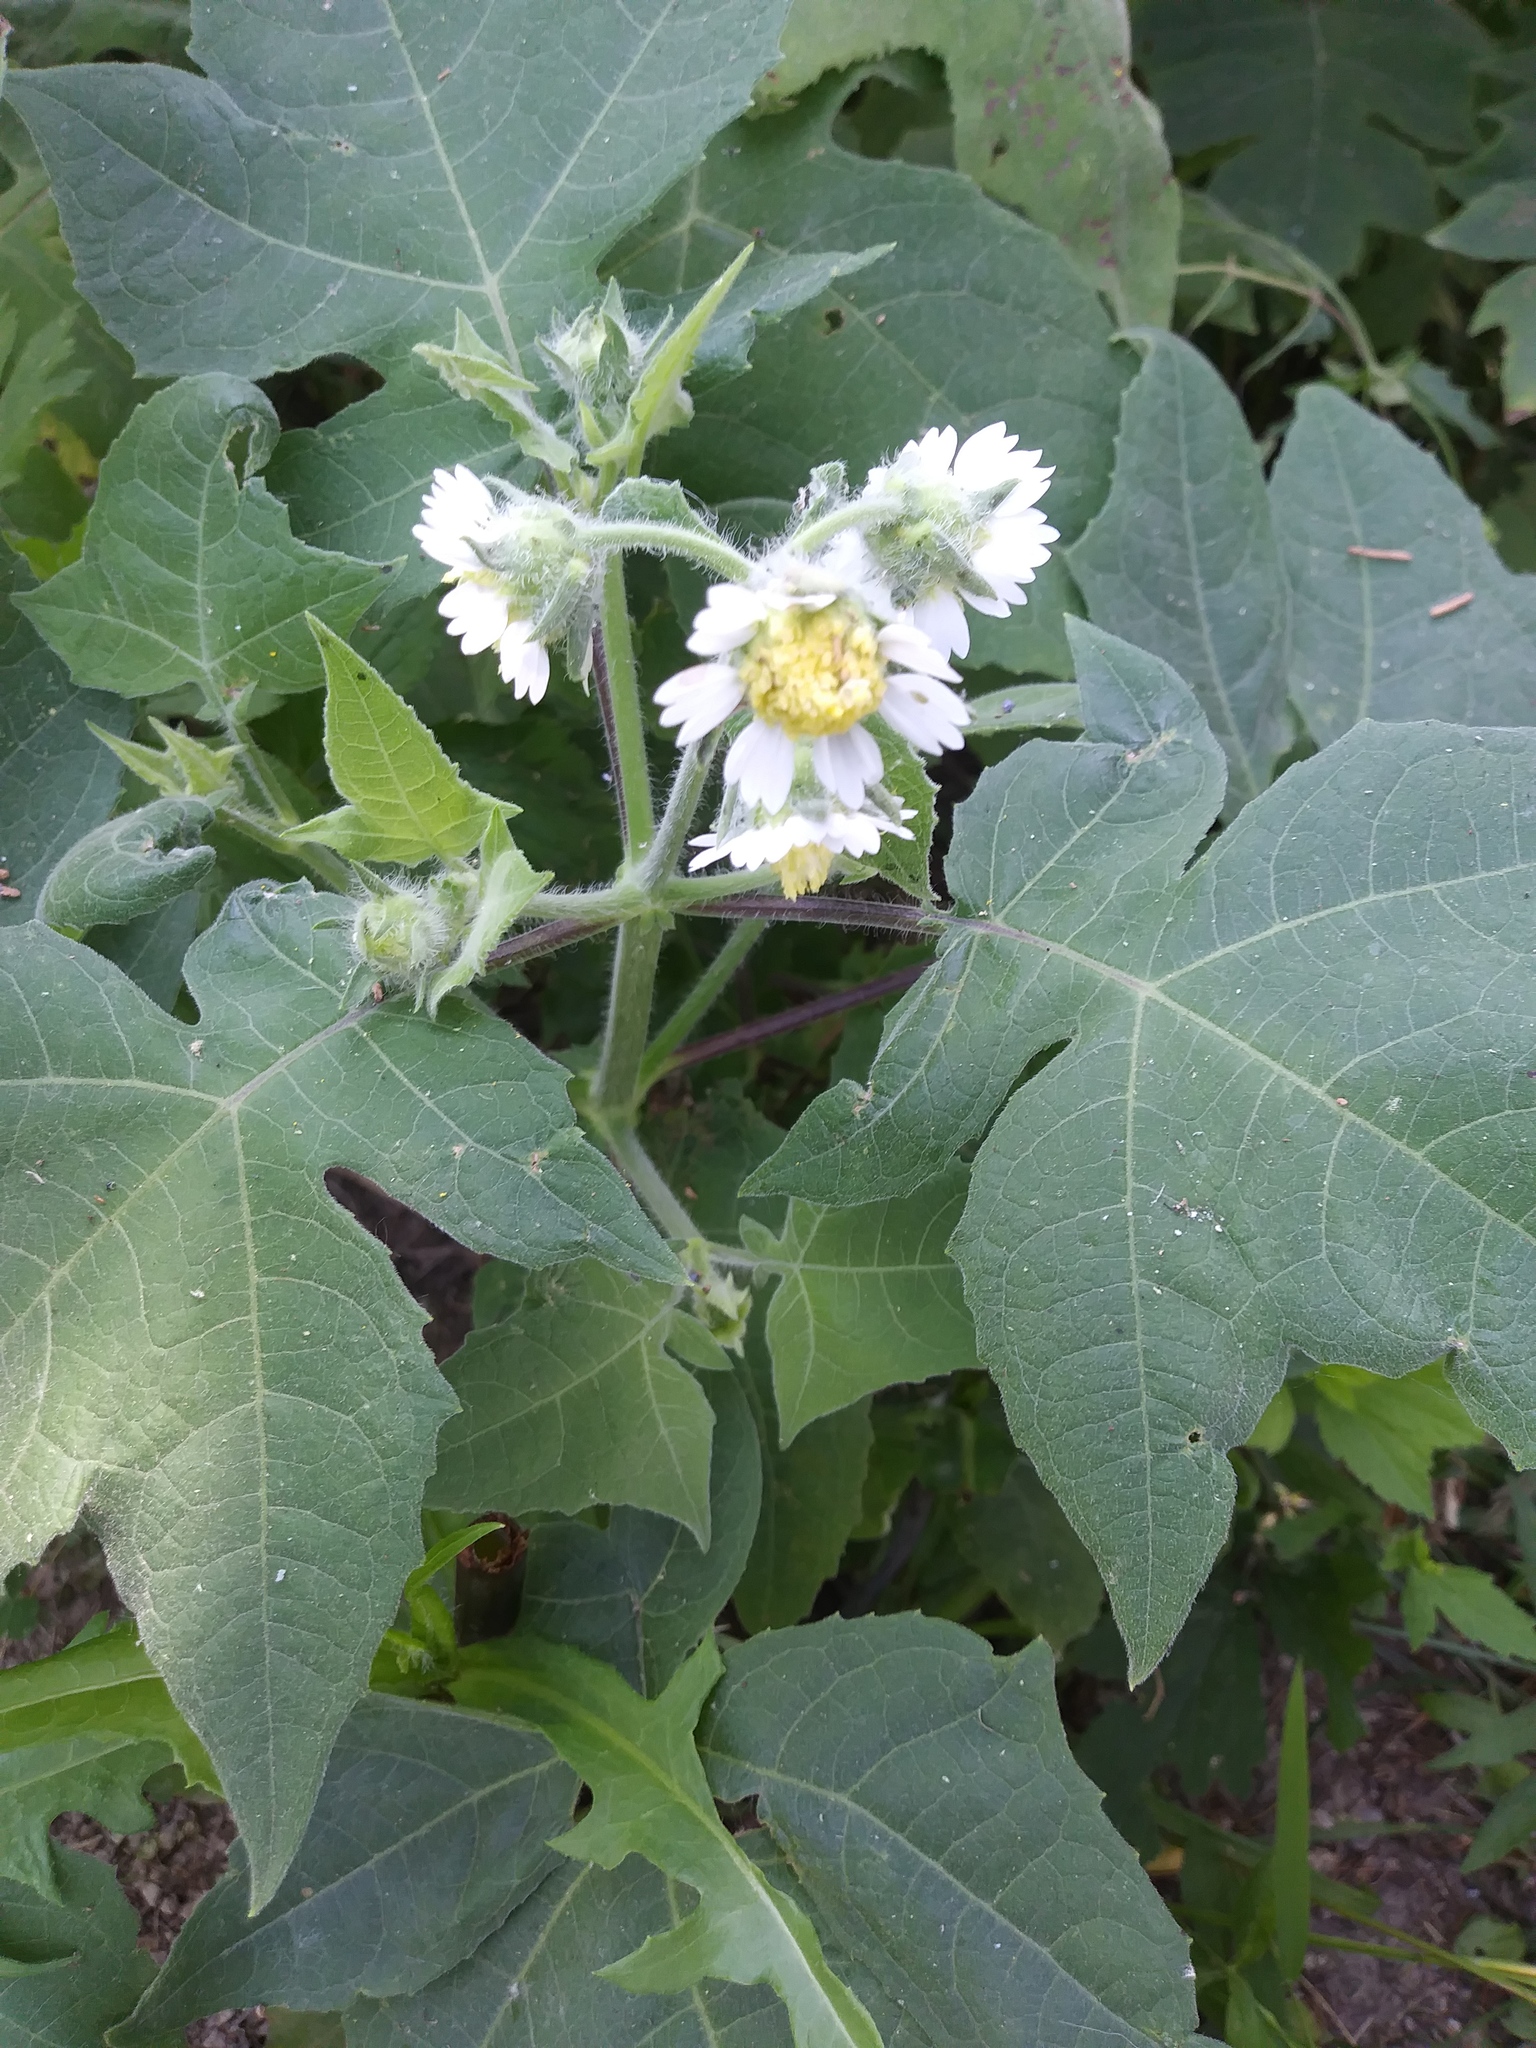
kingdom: Plantae
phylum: Tracheophyta
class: Magnoliopsida
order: Asterales
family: Asteraceae
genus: Polymnia
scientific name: Polymnia canadensis
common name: Pale-flowered leafcup
